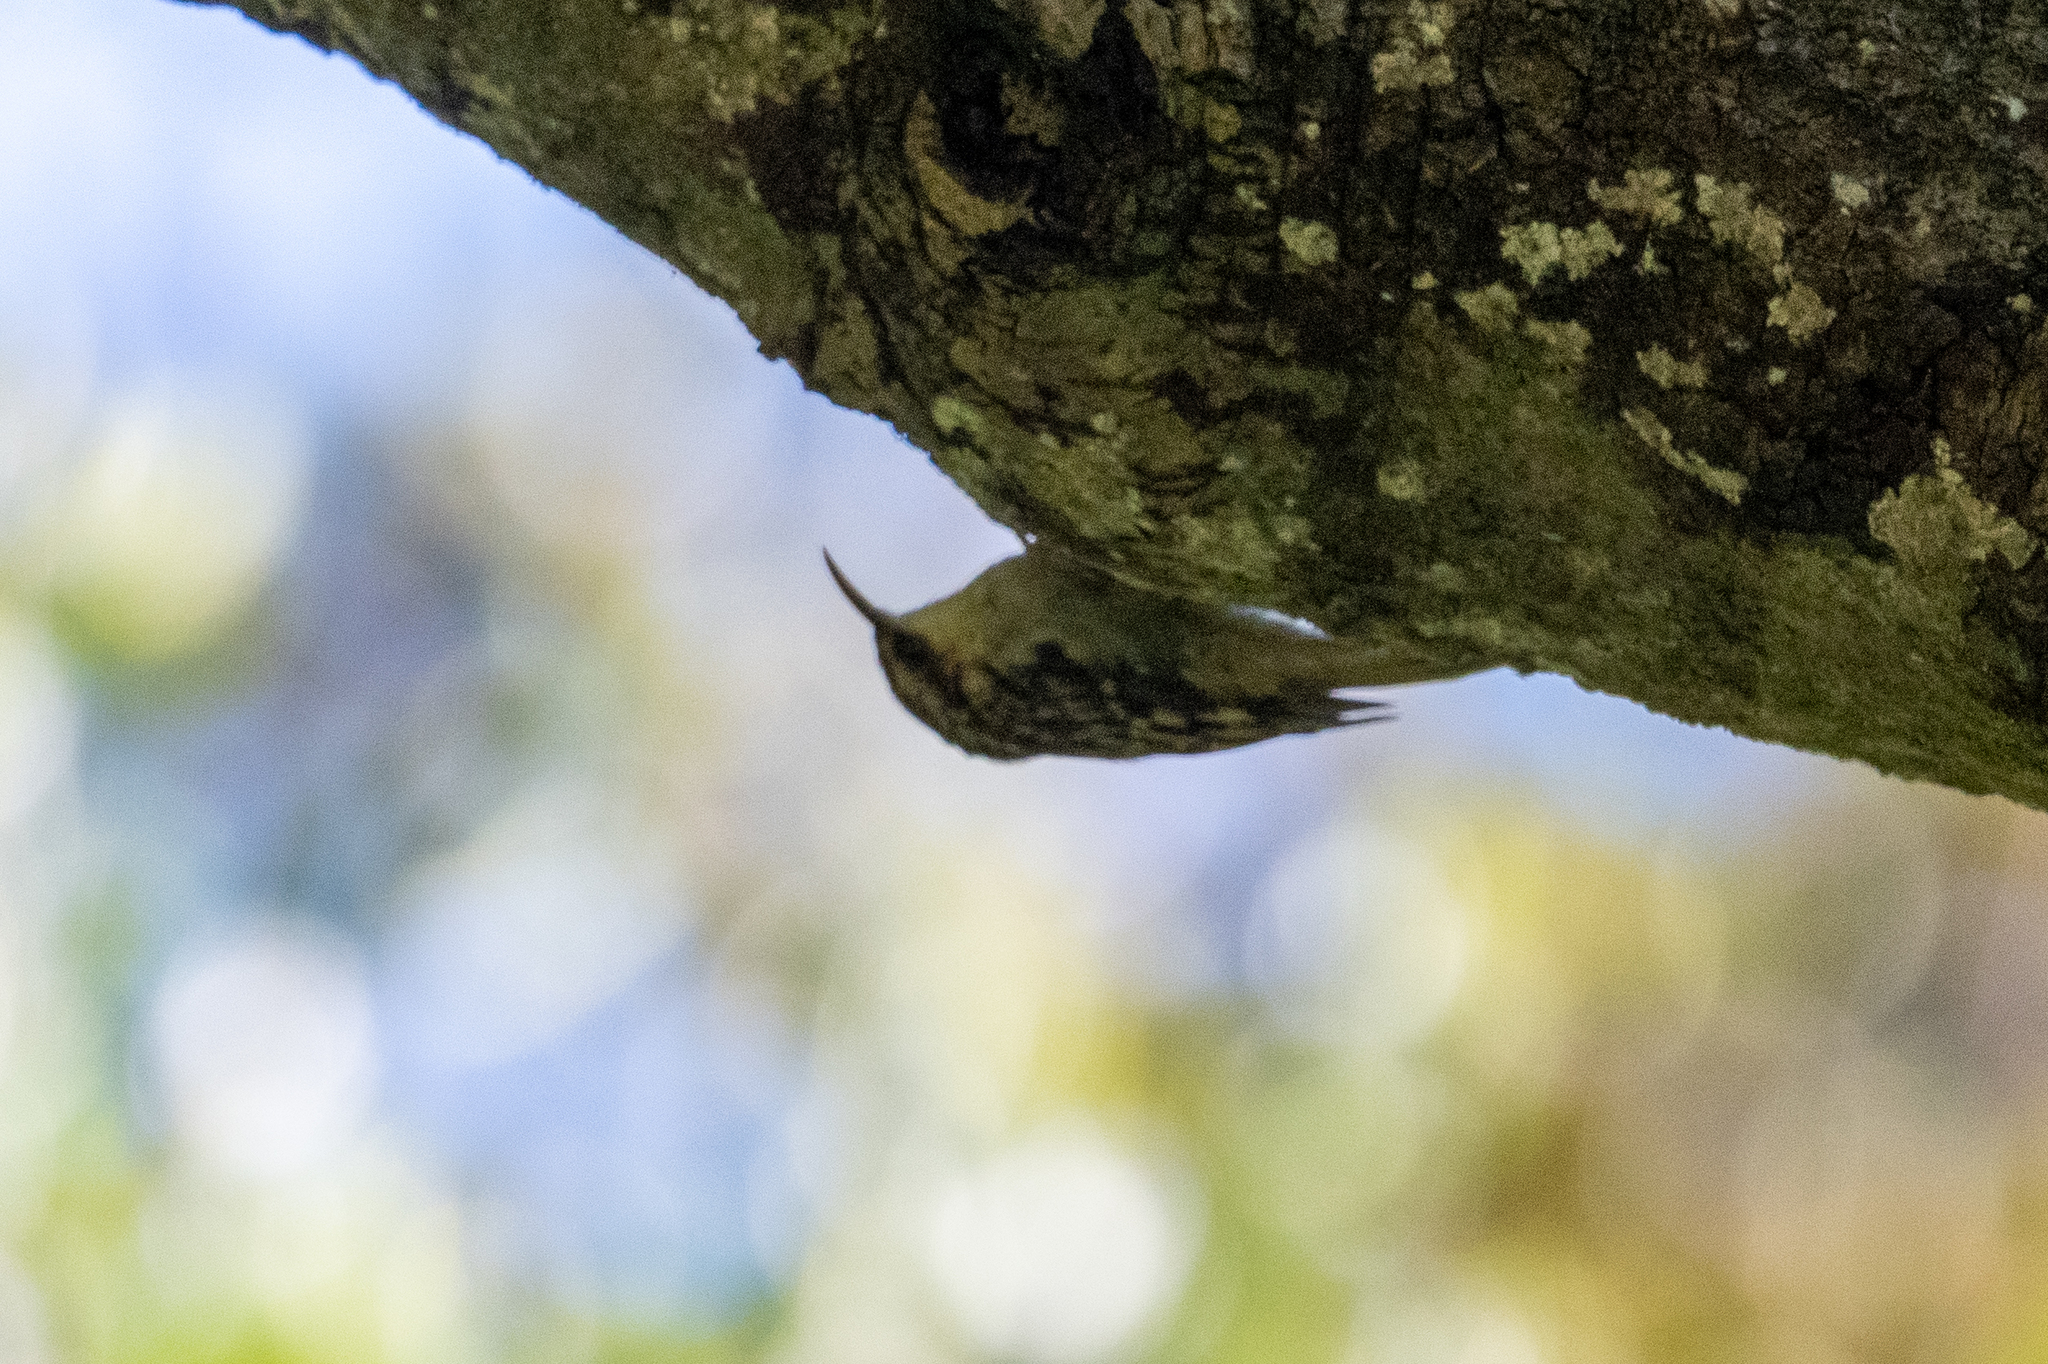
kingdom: Animalia
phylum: Chordata
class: Aves
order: Passeriformes
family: Certhiidae
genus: Certhia
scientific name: Certhia americana
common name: Brown creeper
